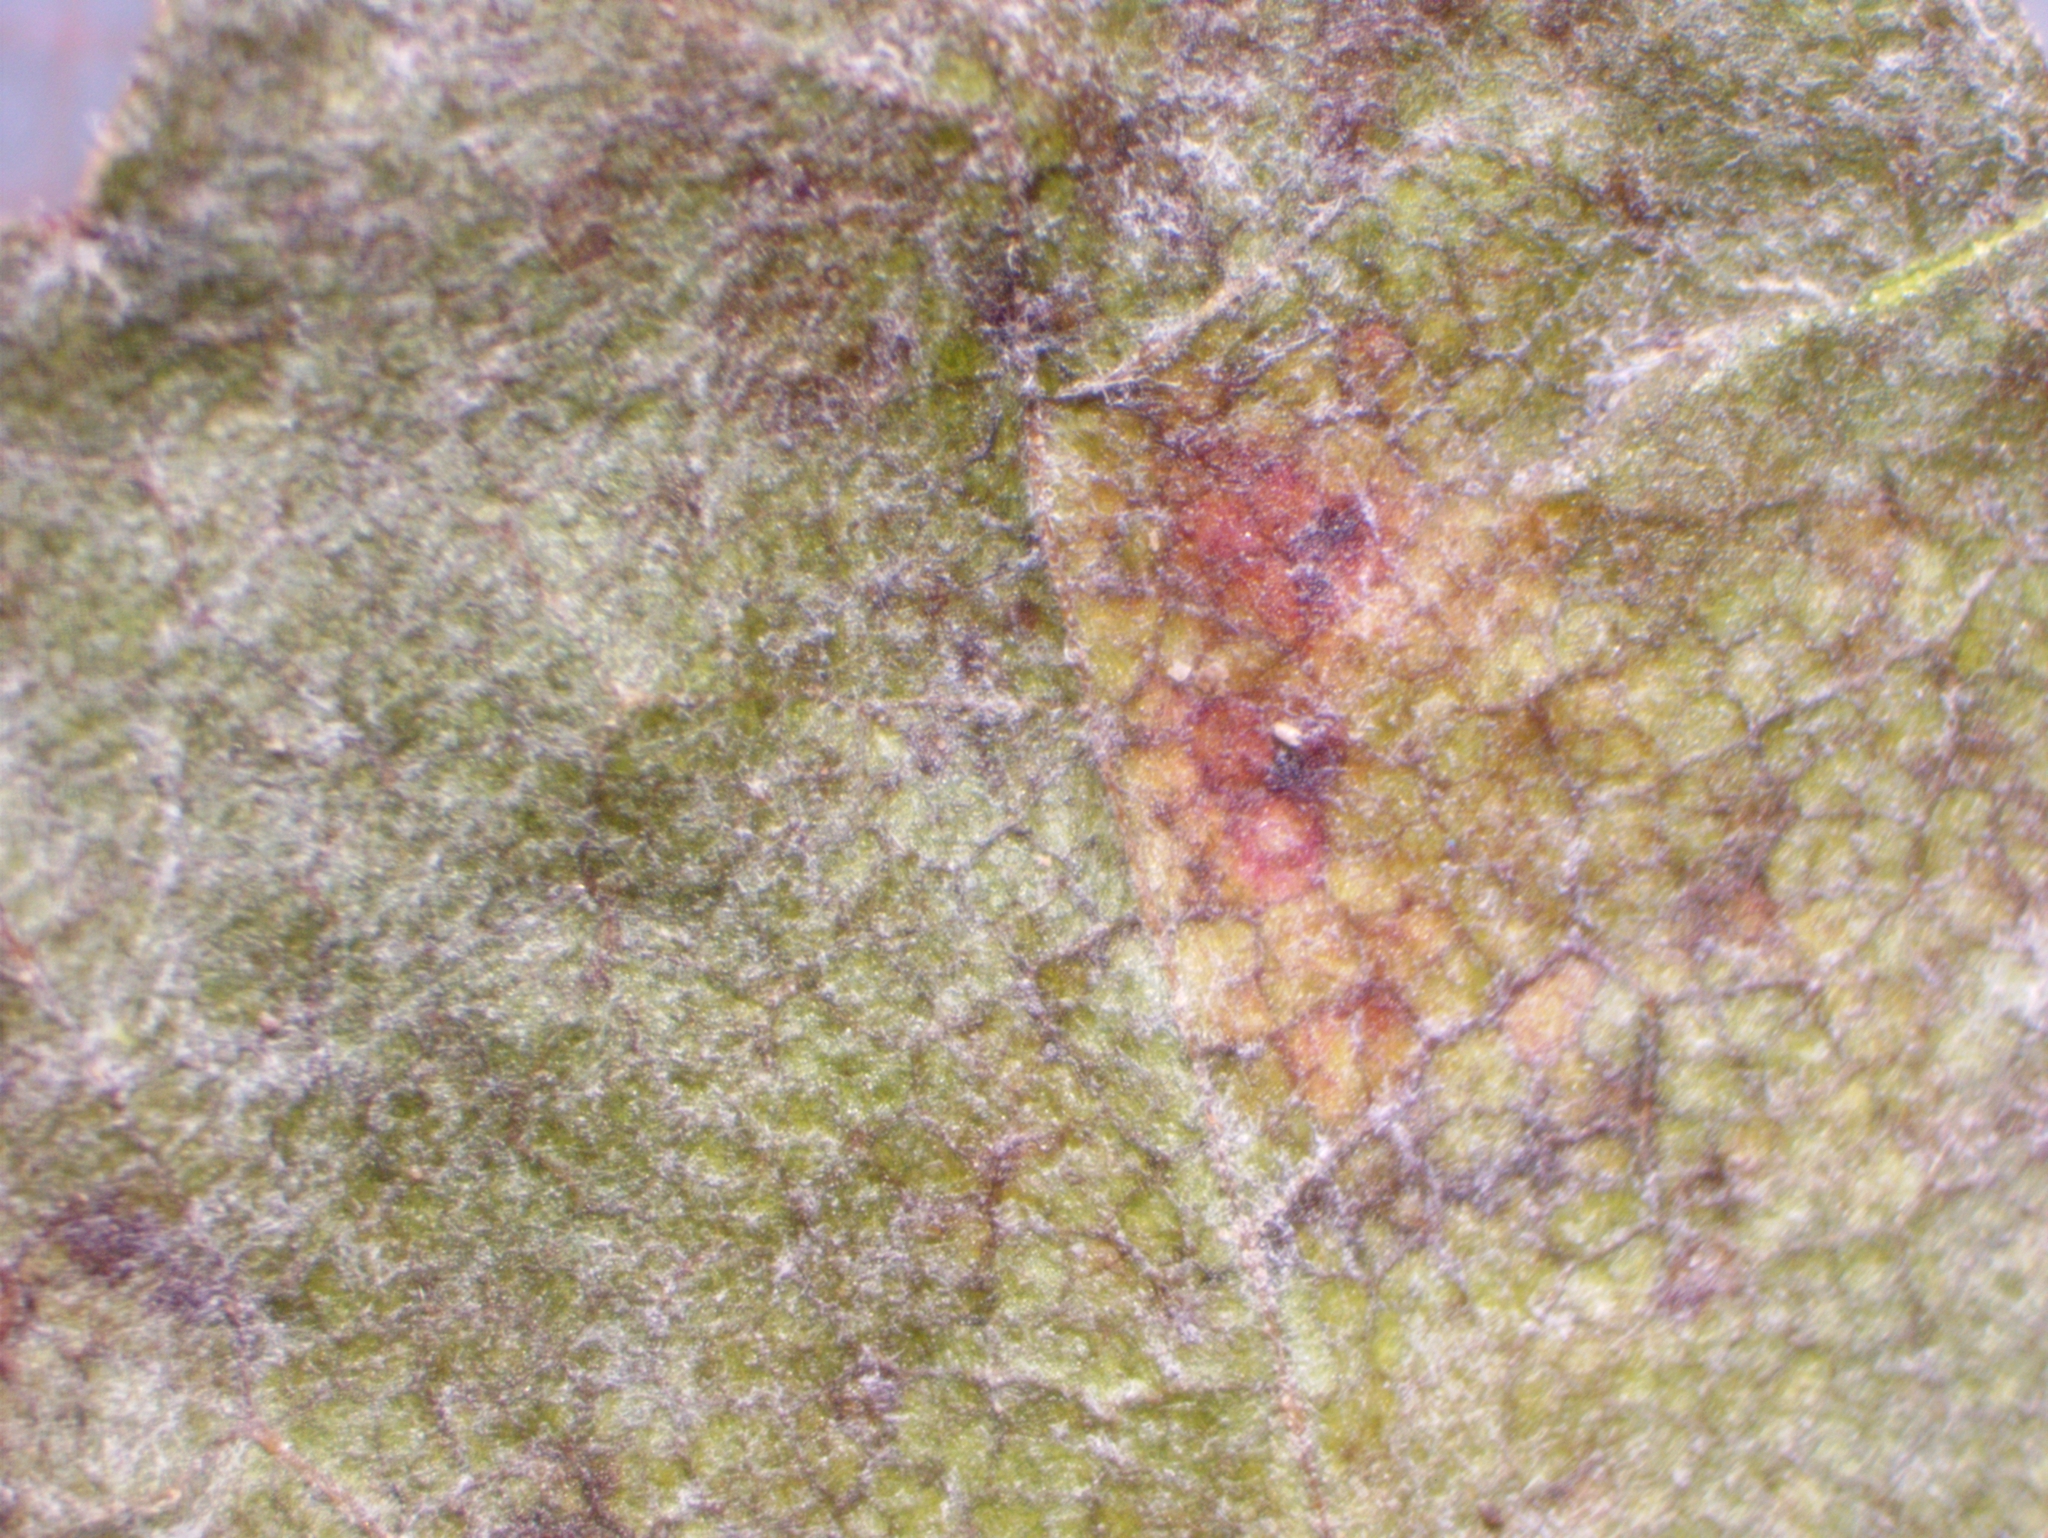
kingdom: Fungi
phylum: Ascomycota
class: Leotiomycetes
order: Helotiales
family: Erysiphaceae
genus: Sawadaea
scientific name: Sawadaea bicornis
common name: Maple mildew
